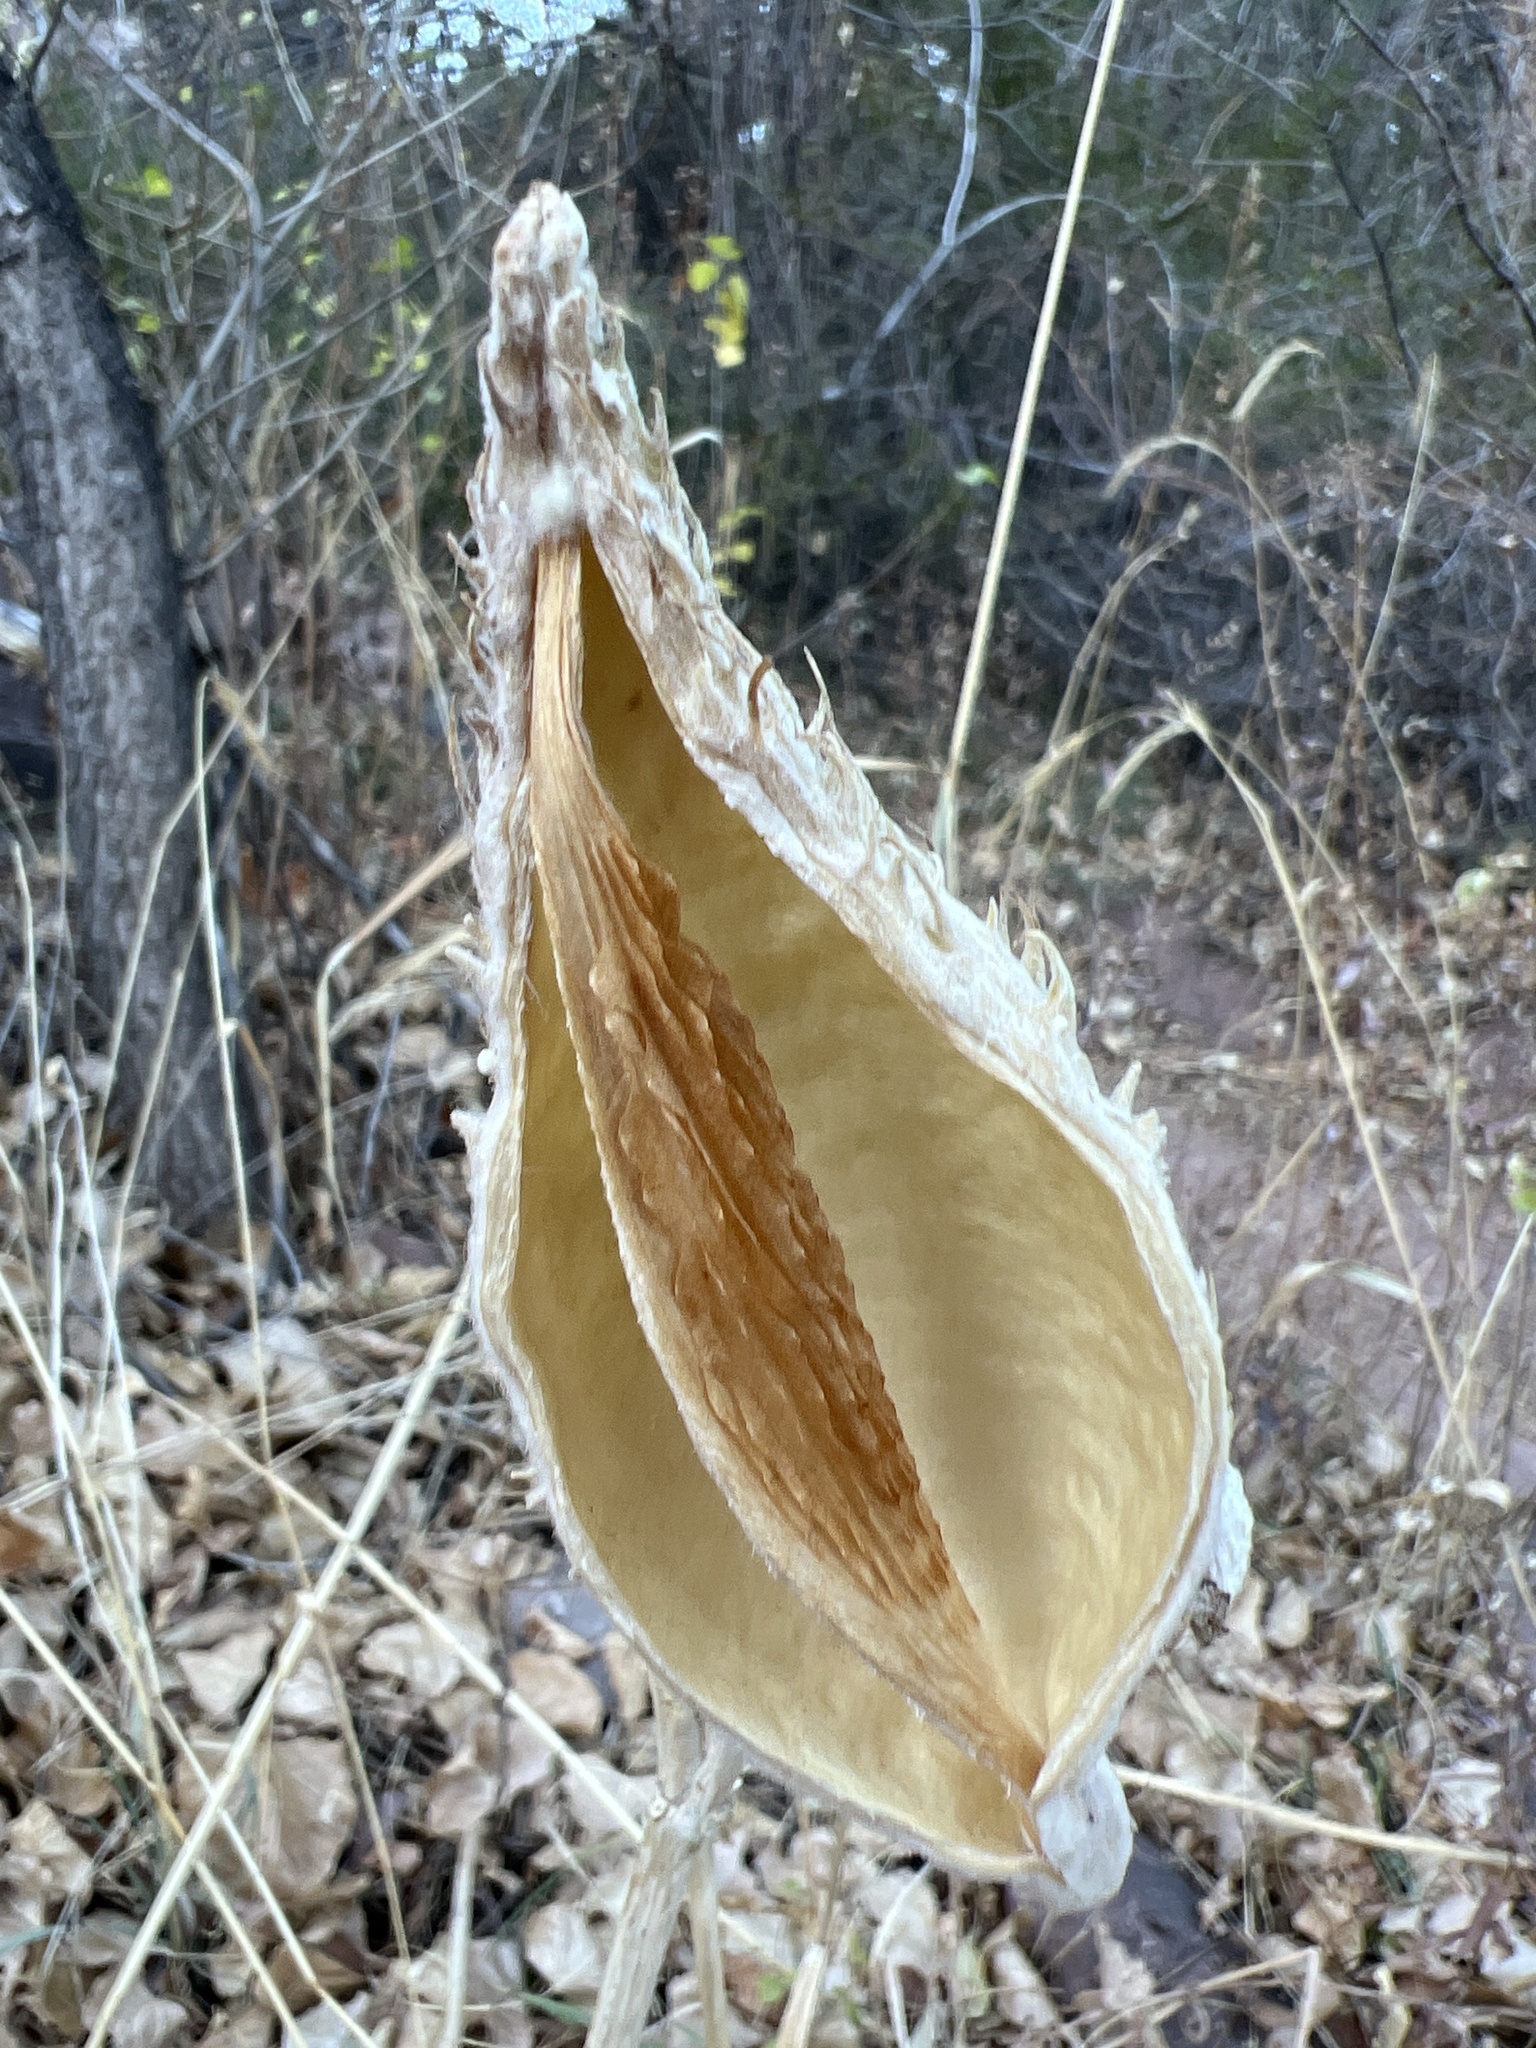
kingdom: Plantae
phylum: Tracheophyta
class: Magnoliopsida
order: Gentianales
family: Apocynaceae
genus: Asclepias
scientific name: Asclepias speciosa
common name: Showy milkweed
